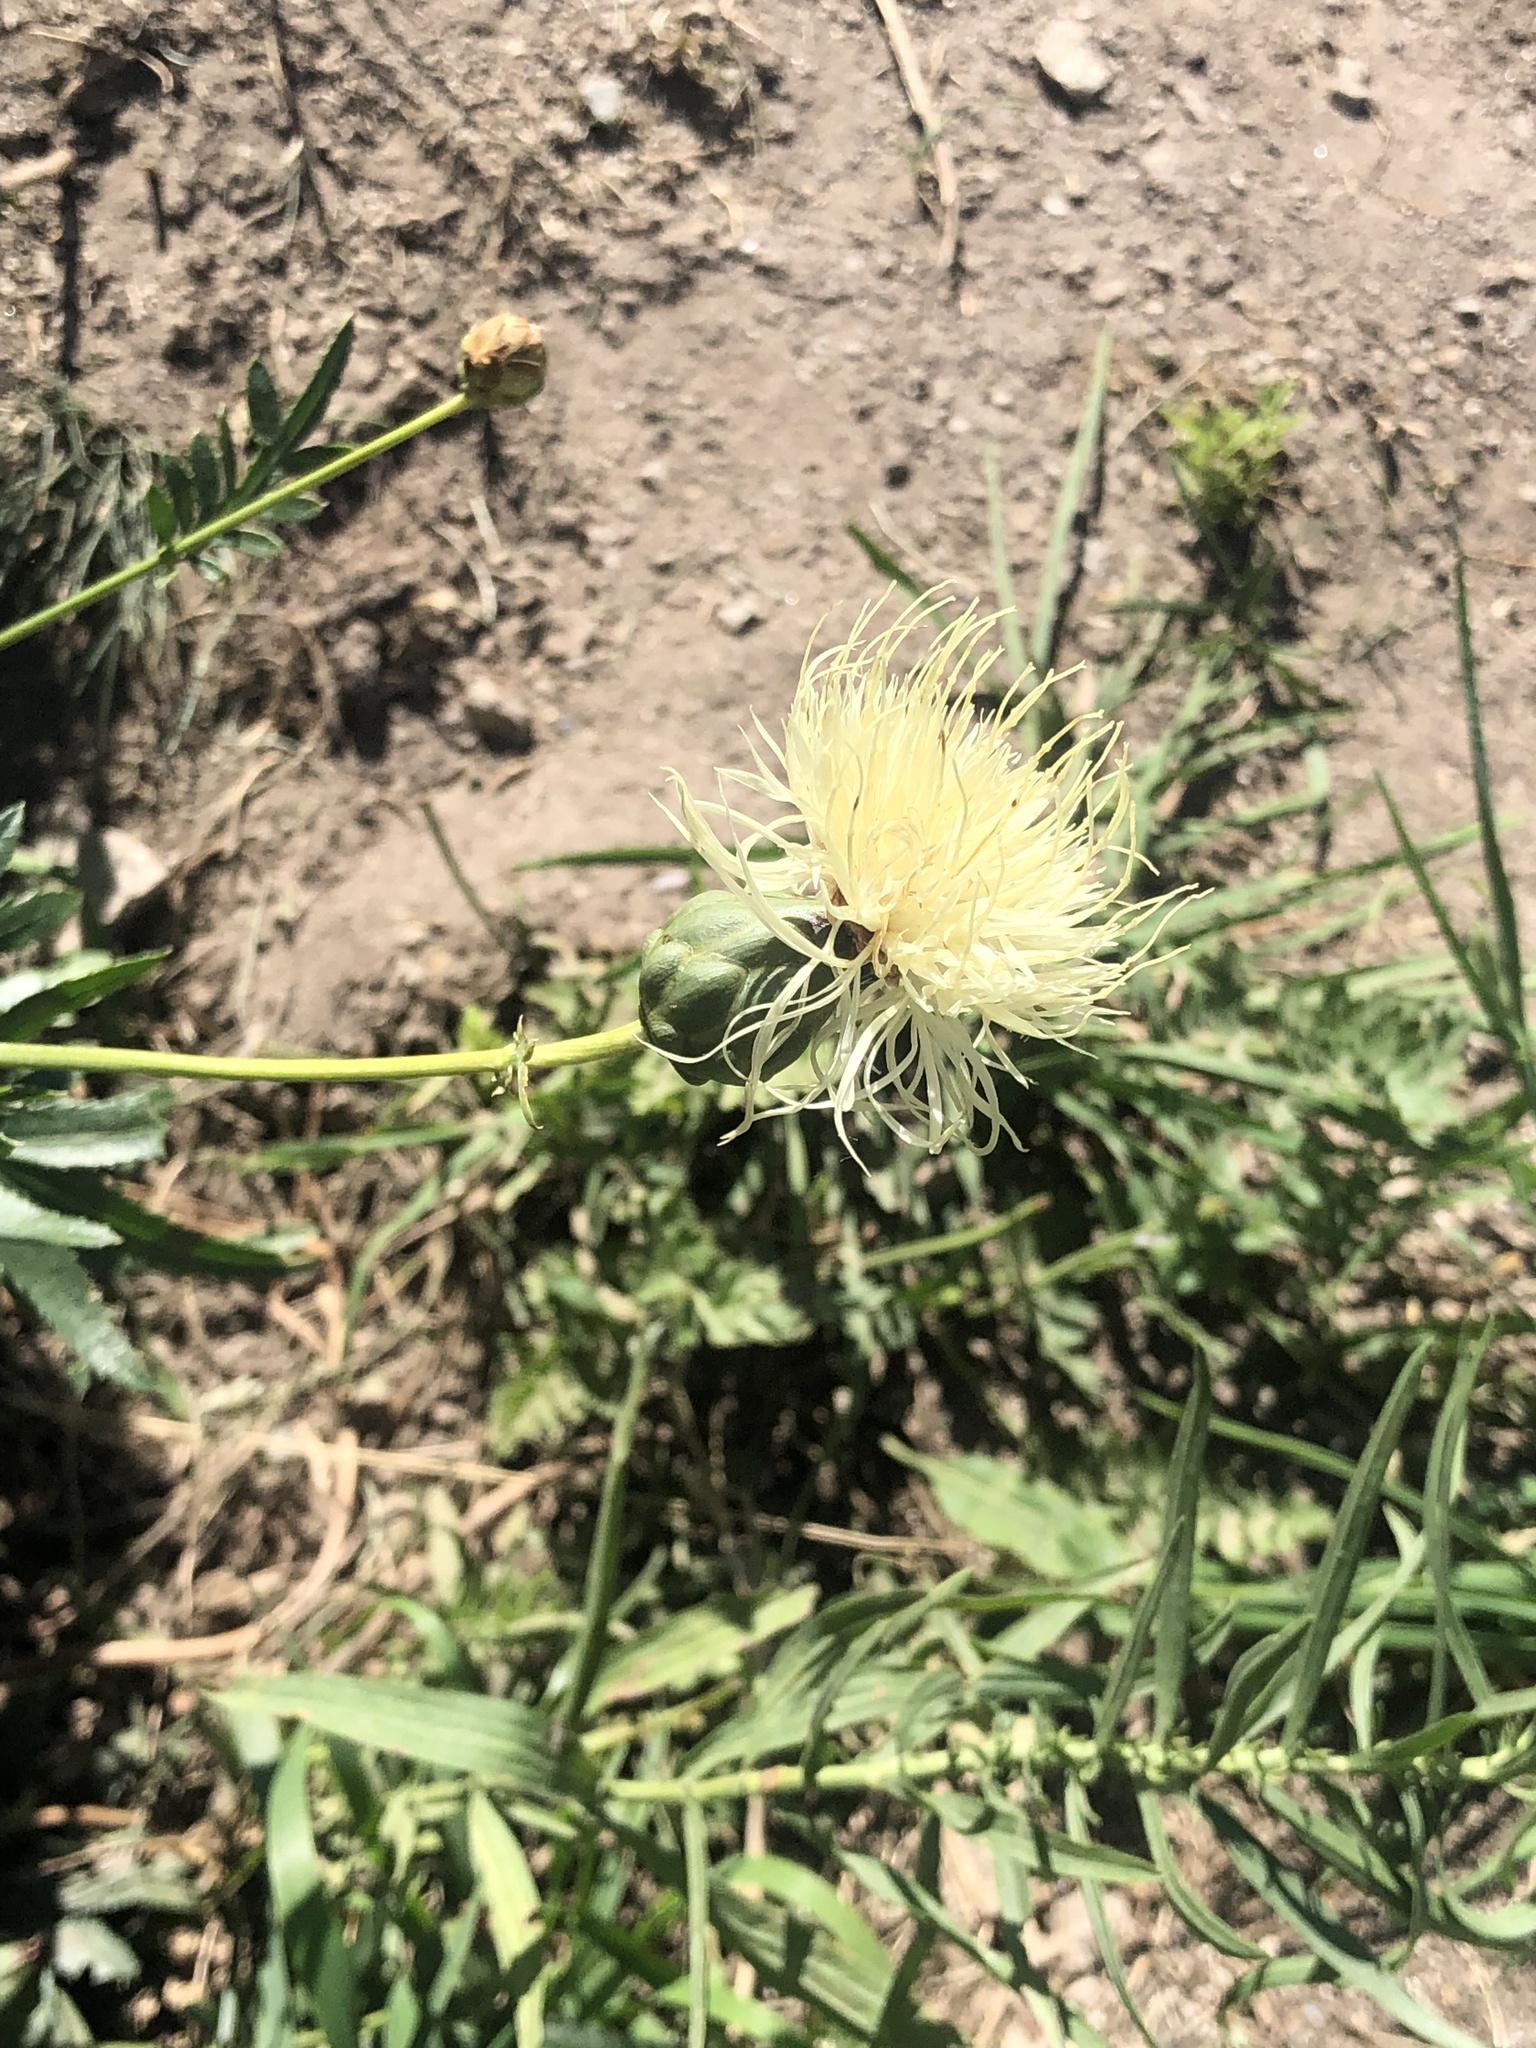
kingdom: Plantae
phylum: Tracheophyta
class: Magnoliopsida
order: Asterales
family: Asteraceae
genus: Rhaponticoides
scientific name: Rhaponticoides ruthenica
